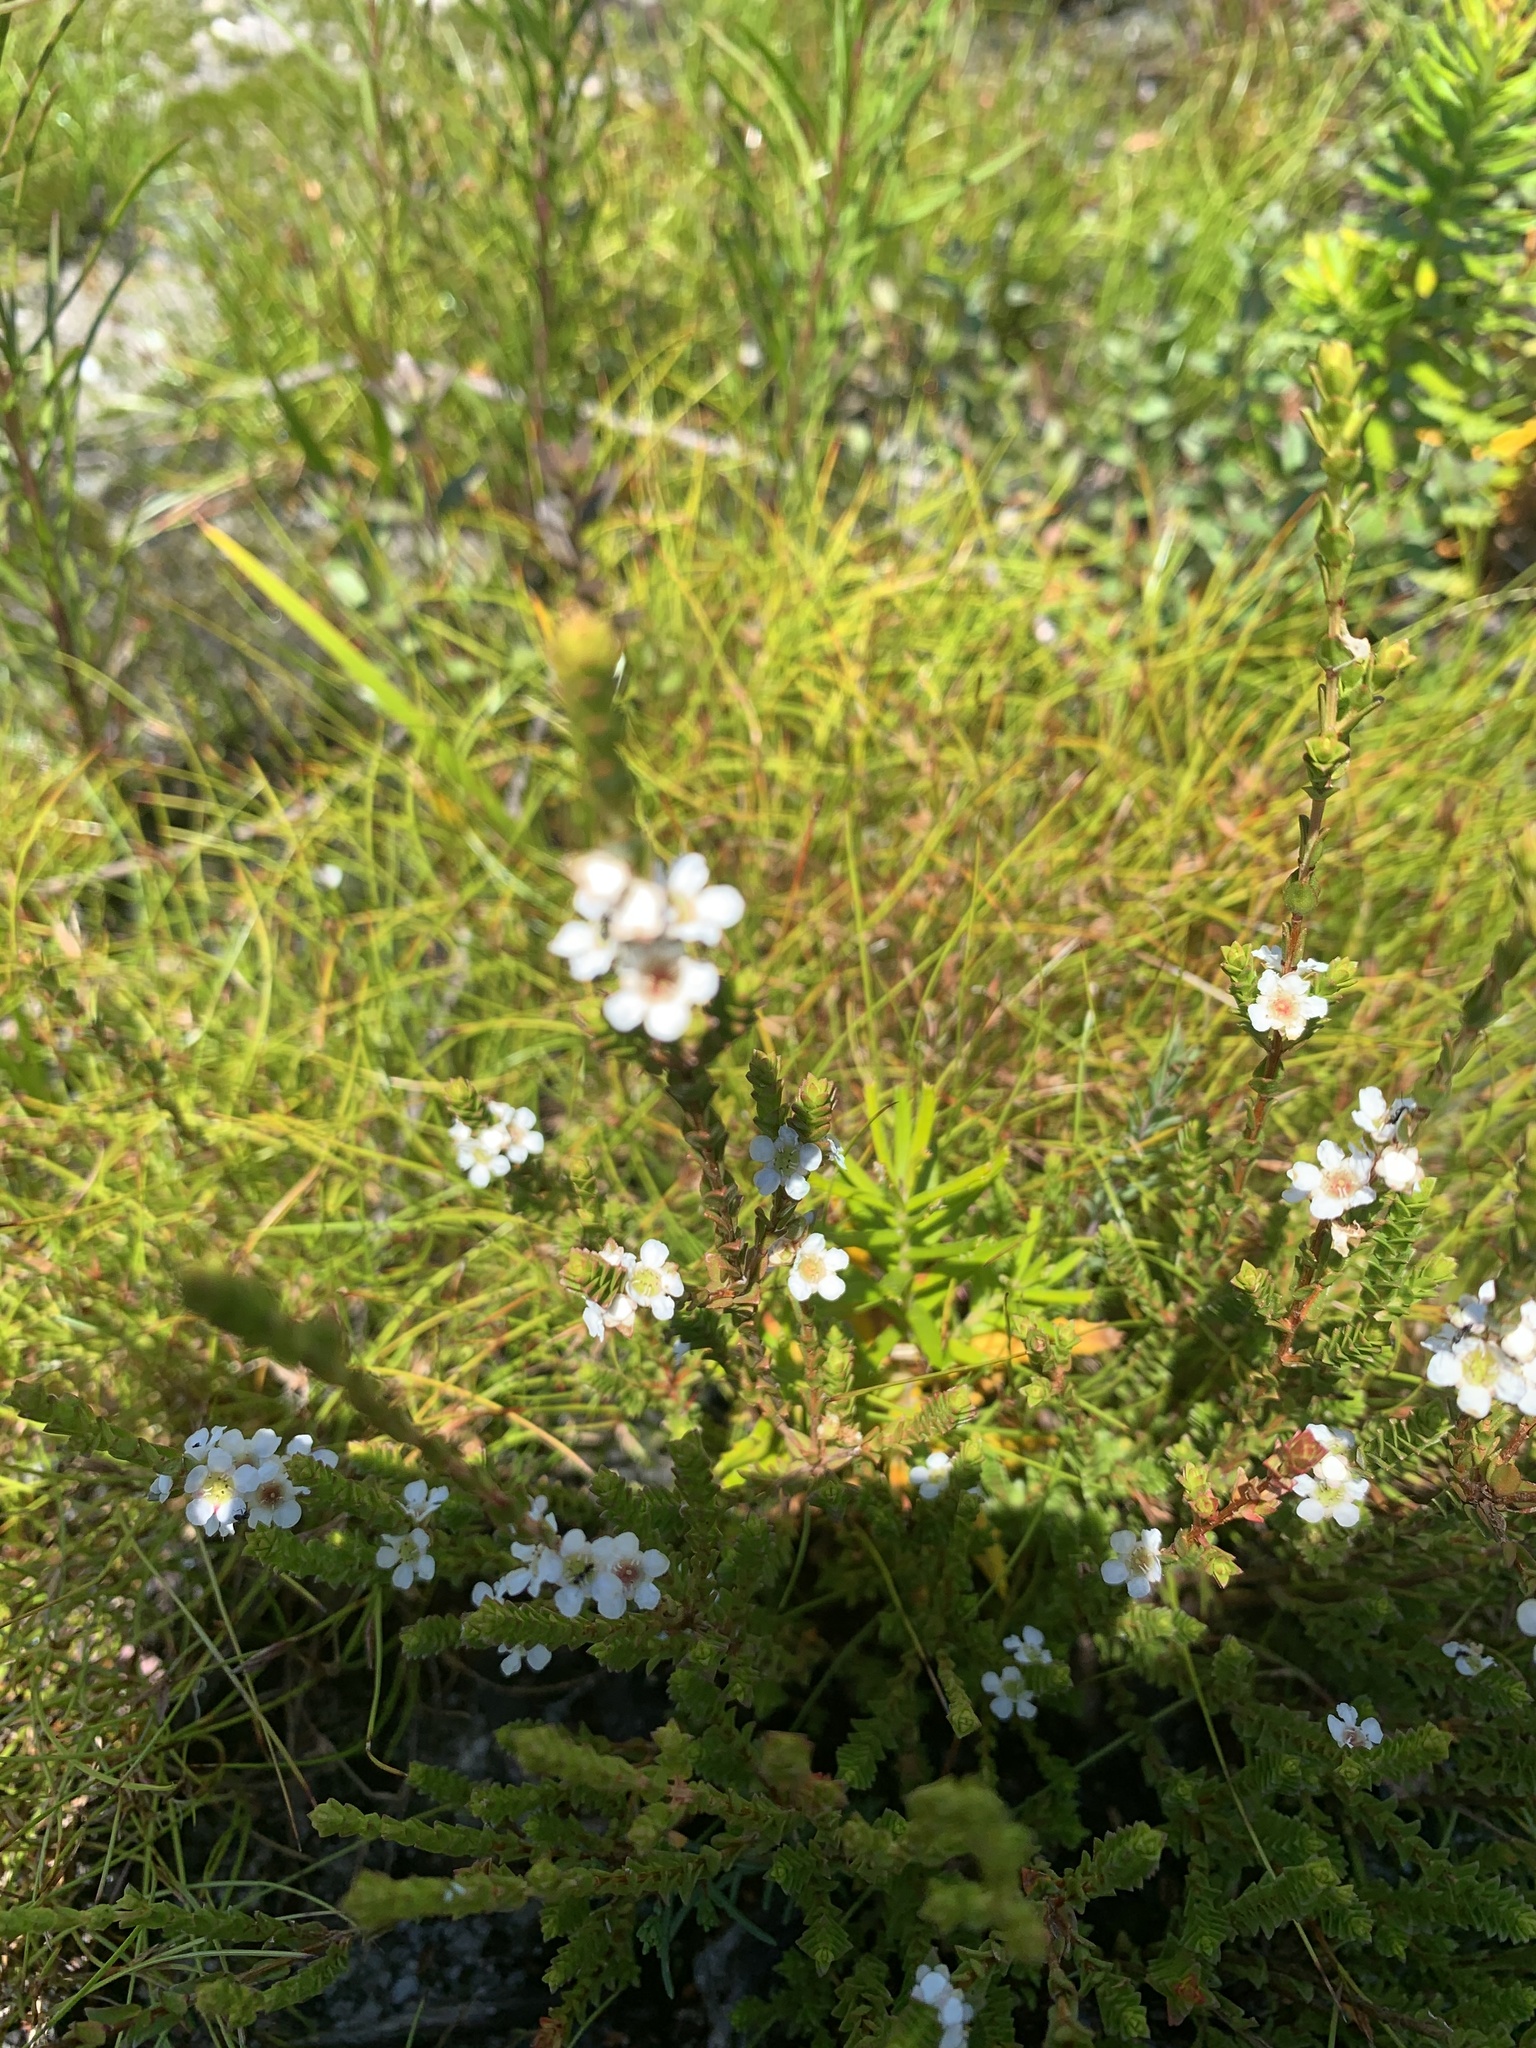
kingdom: Plantae
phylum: Tracheophyta
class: Magnoliopsida
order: Myrtales
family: Myrtaceae
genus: Baeckea
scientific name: Baeckea imbricata
